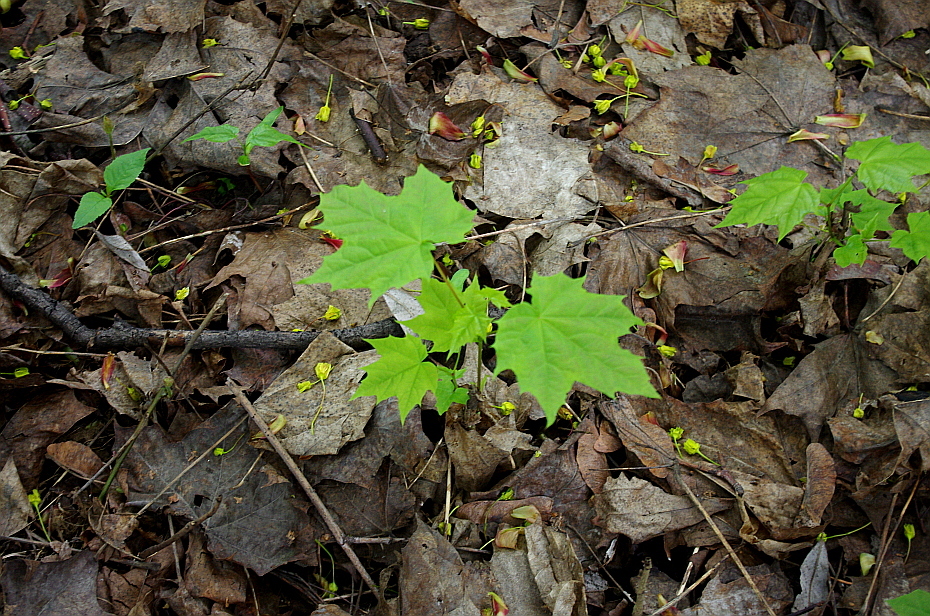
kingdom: Plantae
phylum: Tracheophyta
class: Magnoliopsida
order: Sapindales
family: Sapindaceae
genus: Acer
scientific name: Acer platanoides
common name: Norway maple
